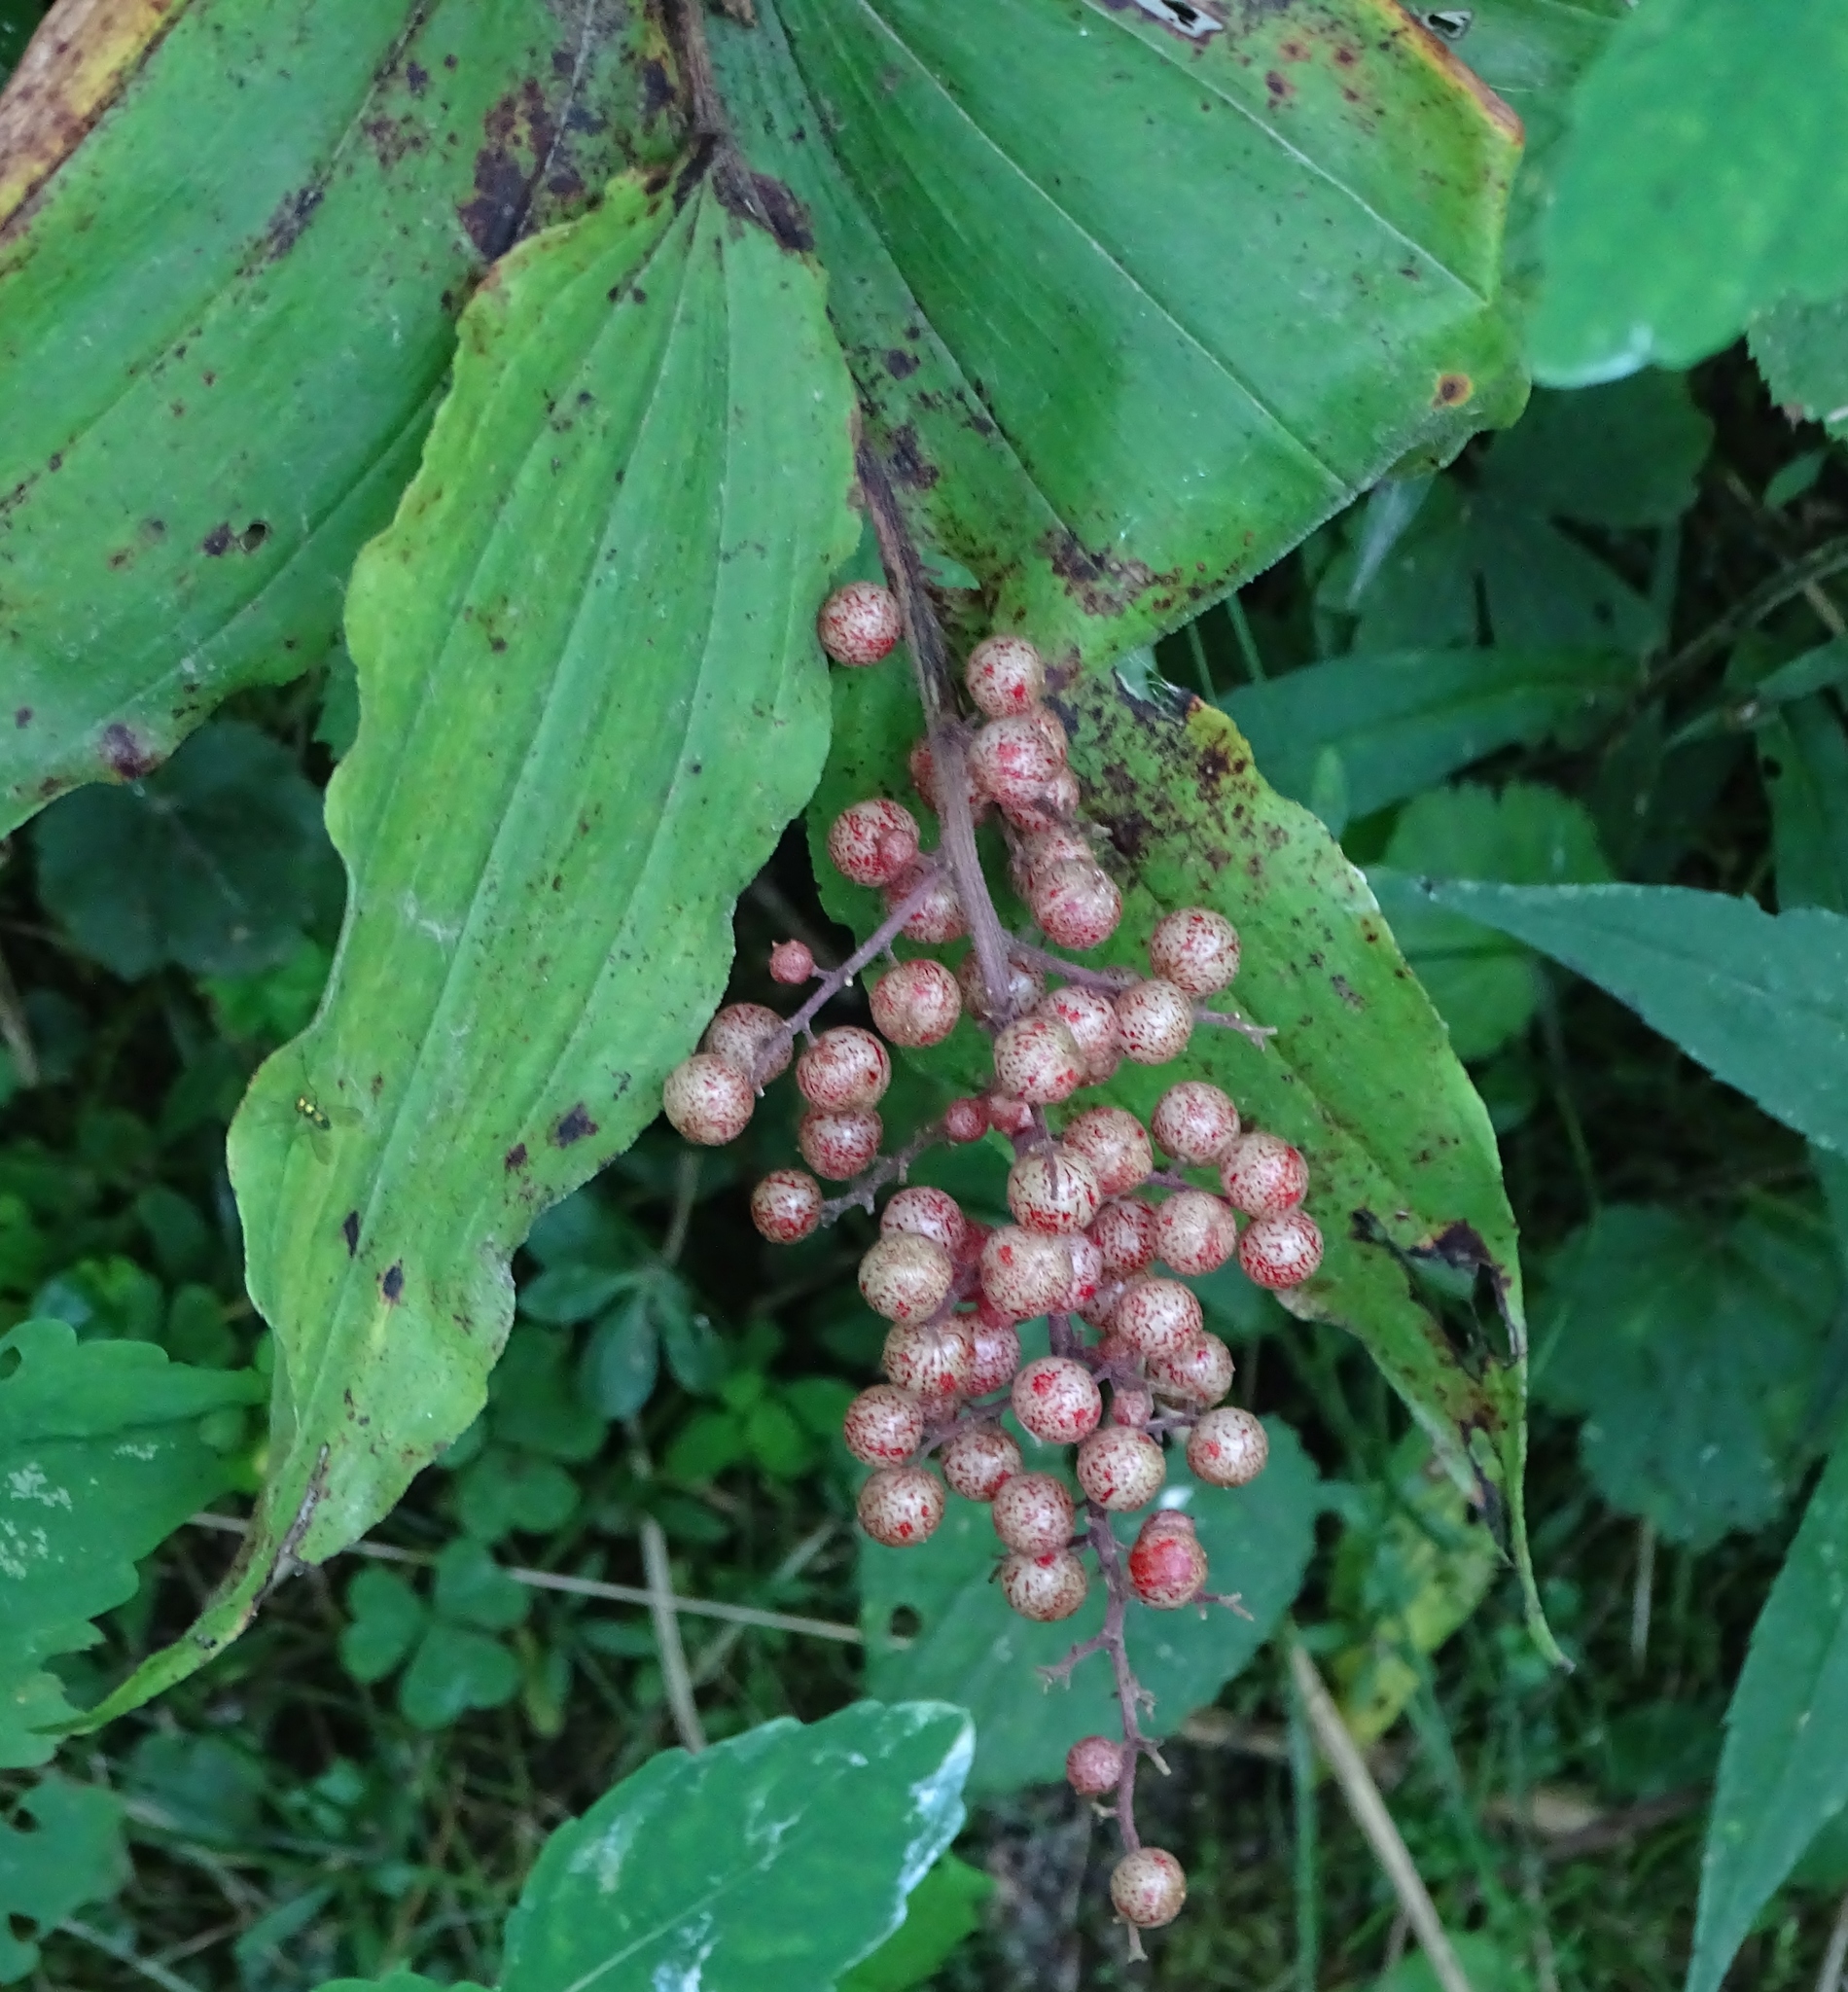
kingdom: Plantae
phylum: Tracheophyta
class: Liliopsida
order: Asparagales
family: Asparagaceae
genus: Maianthemum
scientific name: Maianthemum racemosum
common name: False spikenard
